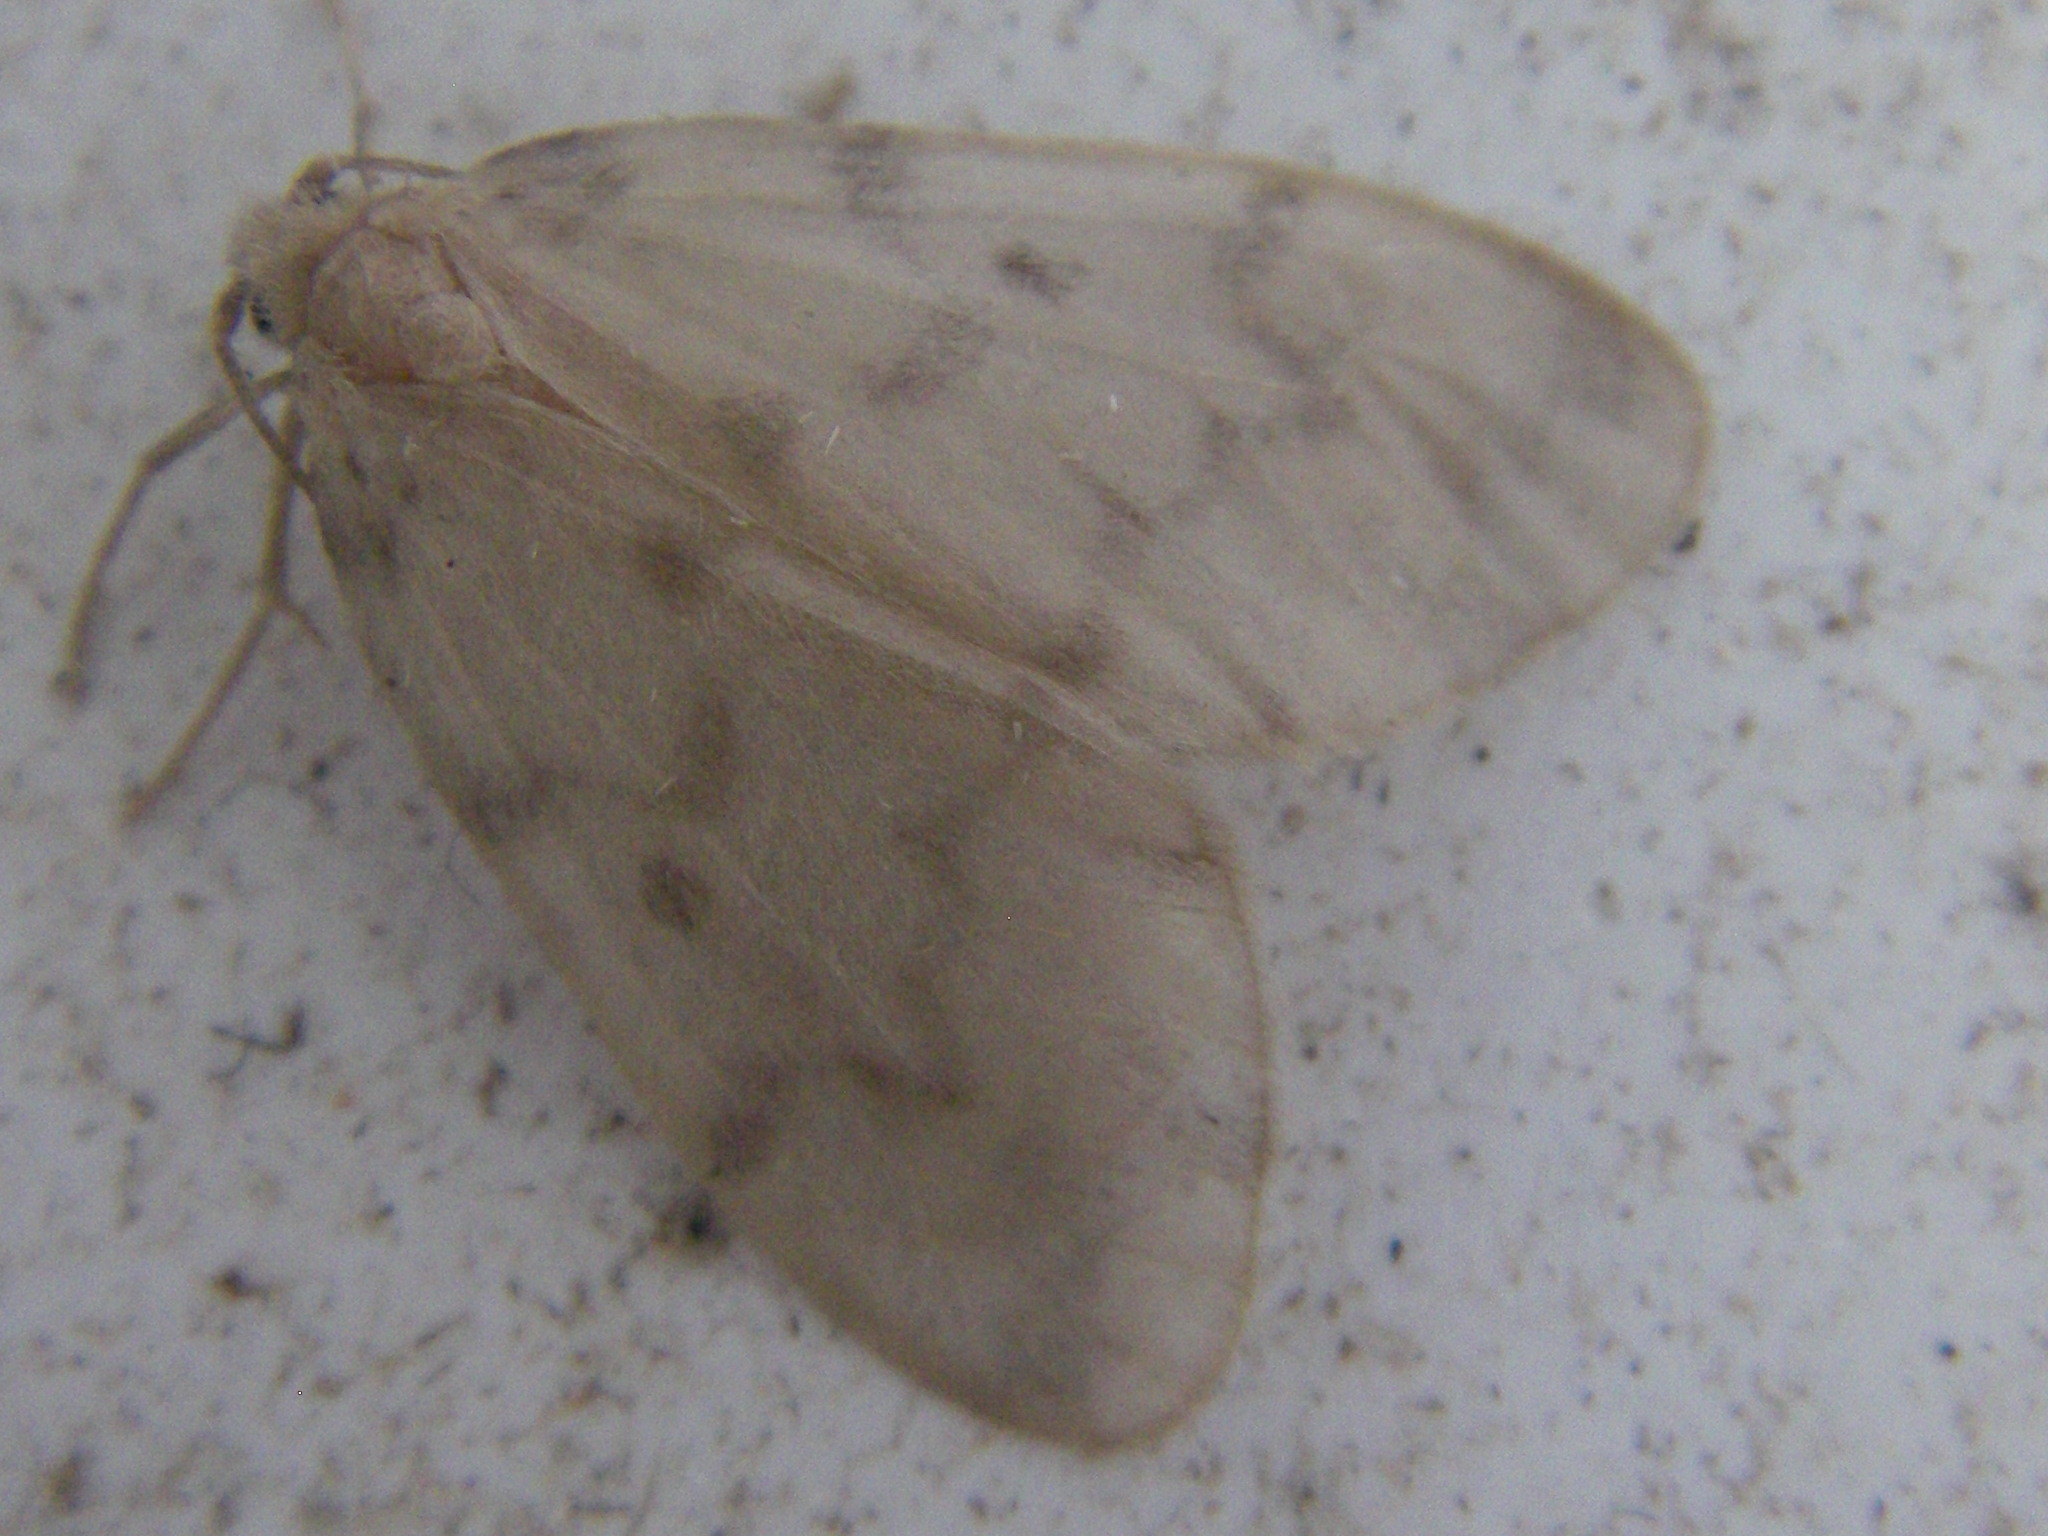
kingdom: Animalia
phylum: Arthropoda
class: Insecta
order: Lepidoptera
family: Erebidae
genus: Nudaria
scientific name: Nudaria mundana
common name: Muslin footman
